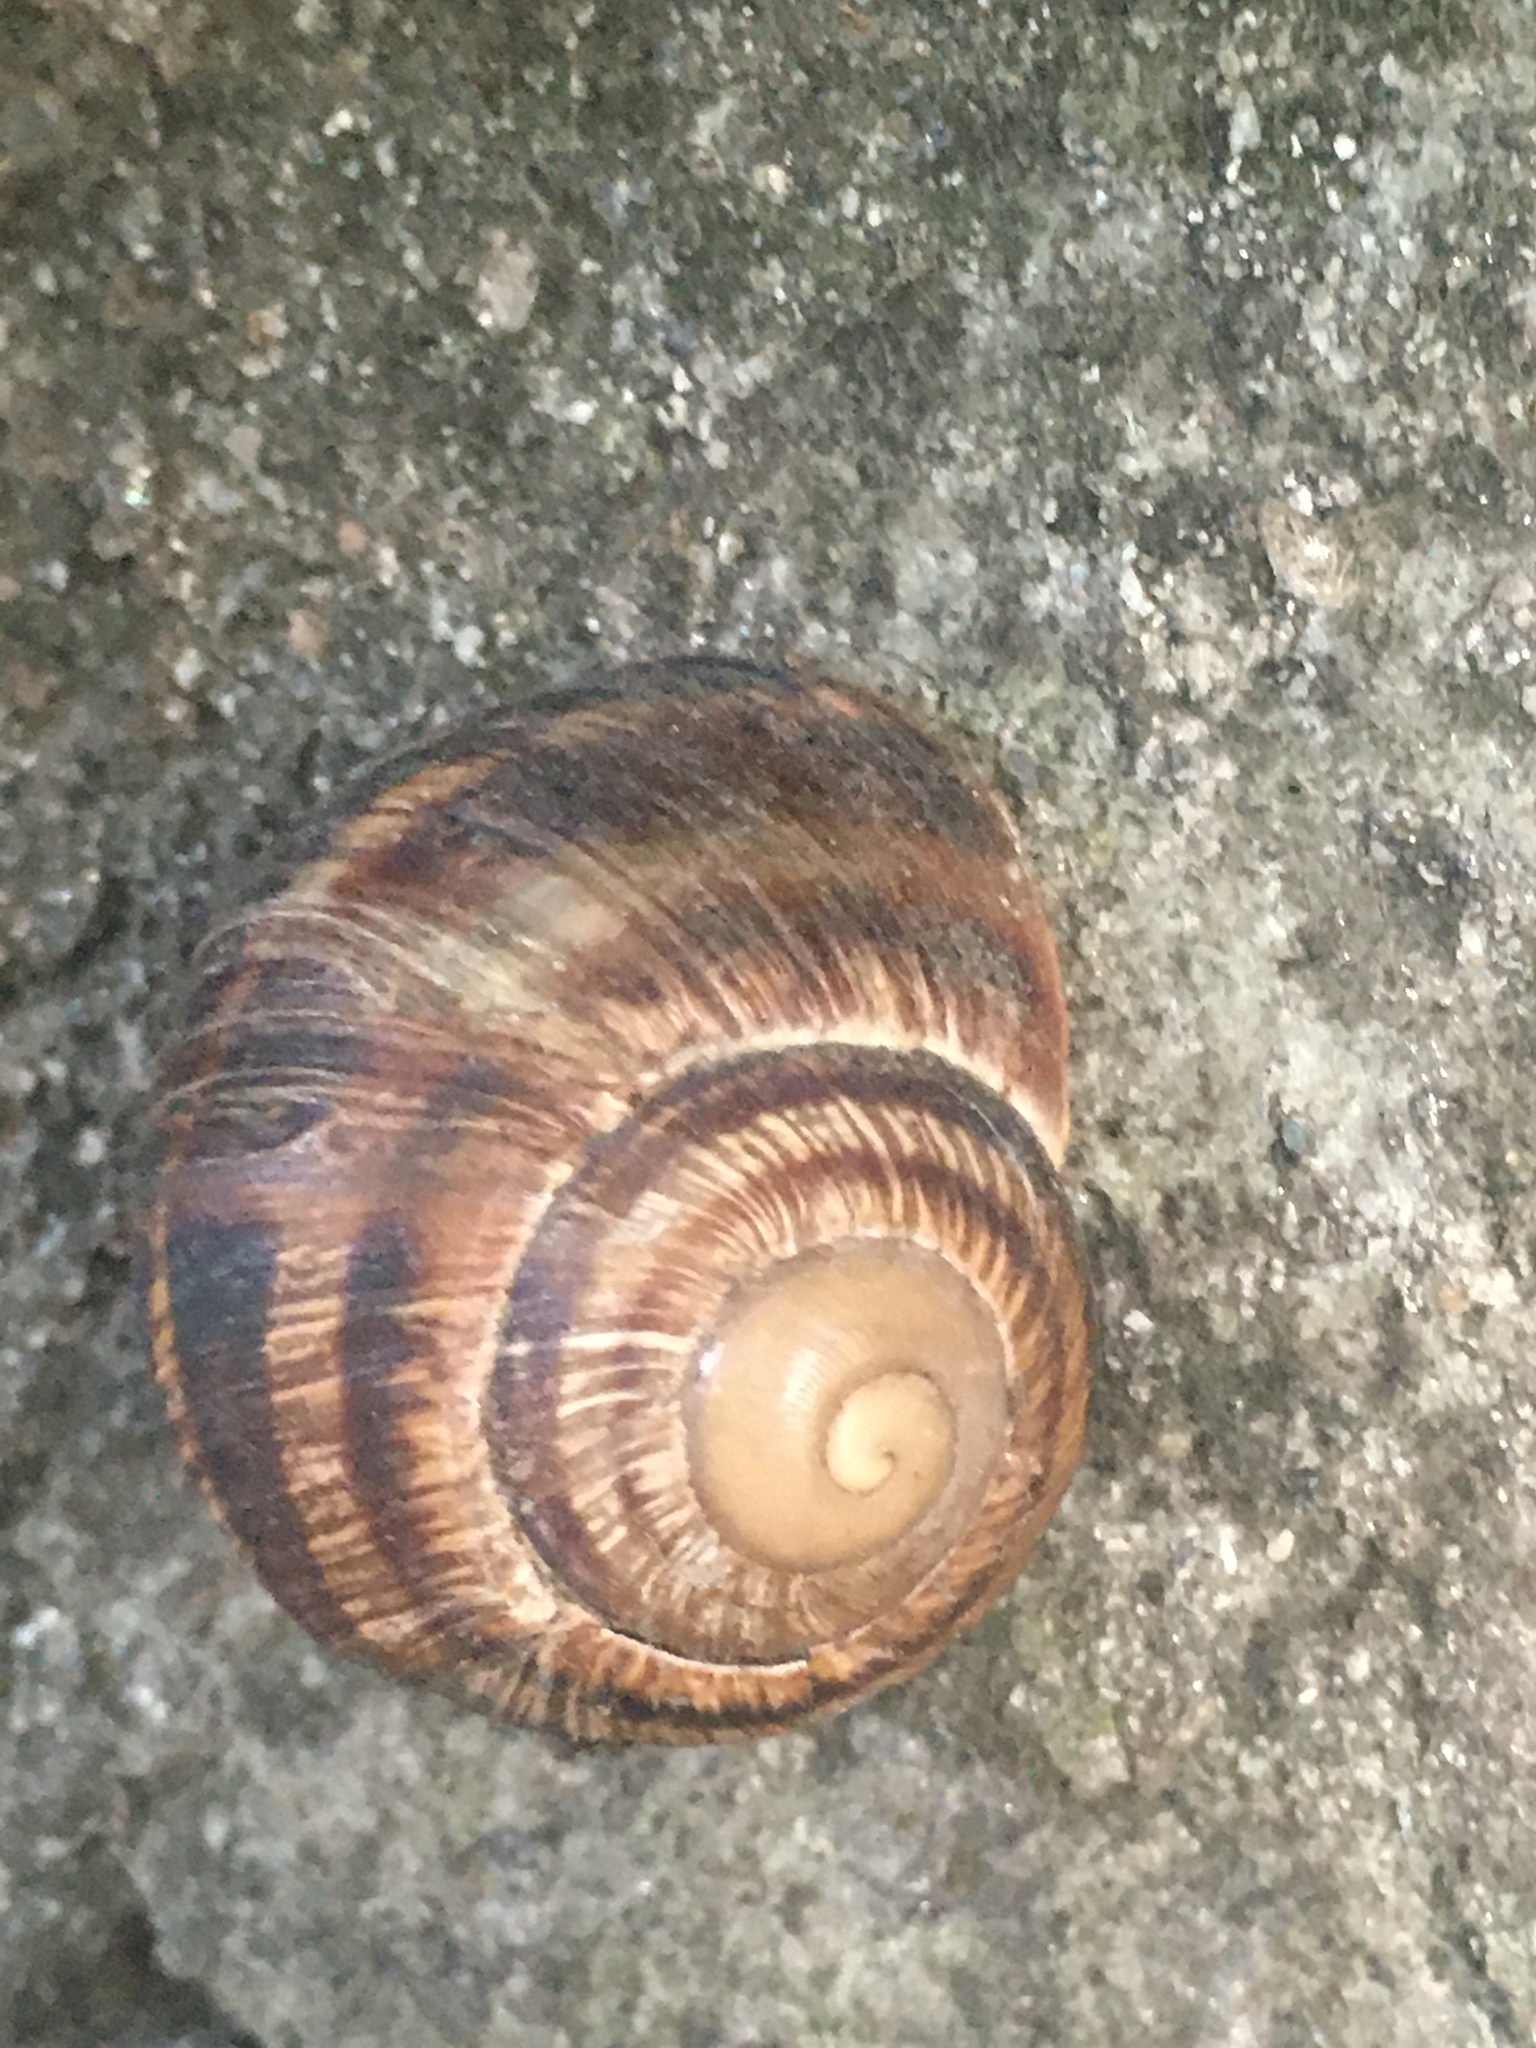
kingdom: Animalia
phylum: Mollusca
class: Gastropoda
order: Stylommatophora
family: Helicidae
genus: Helix
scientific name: Helix albescens
